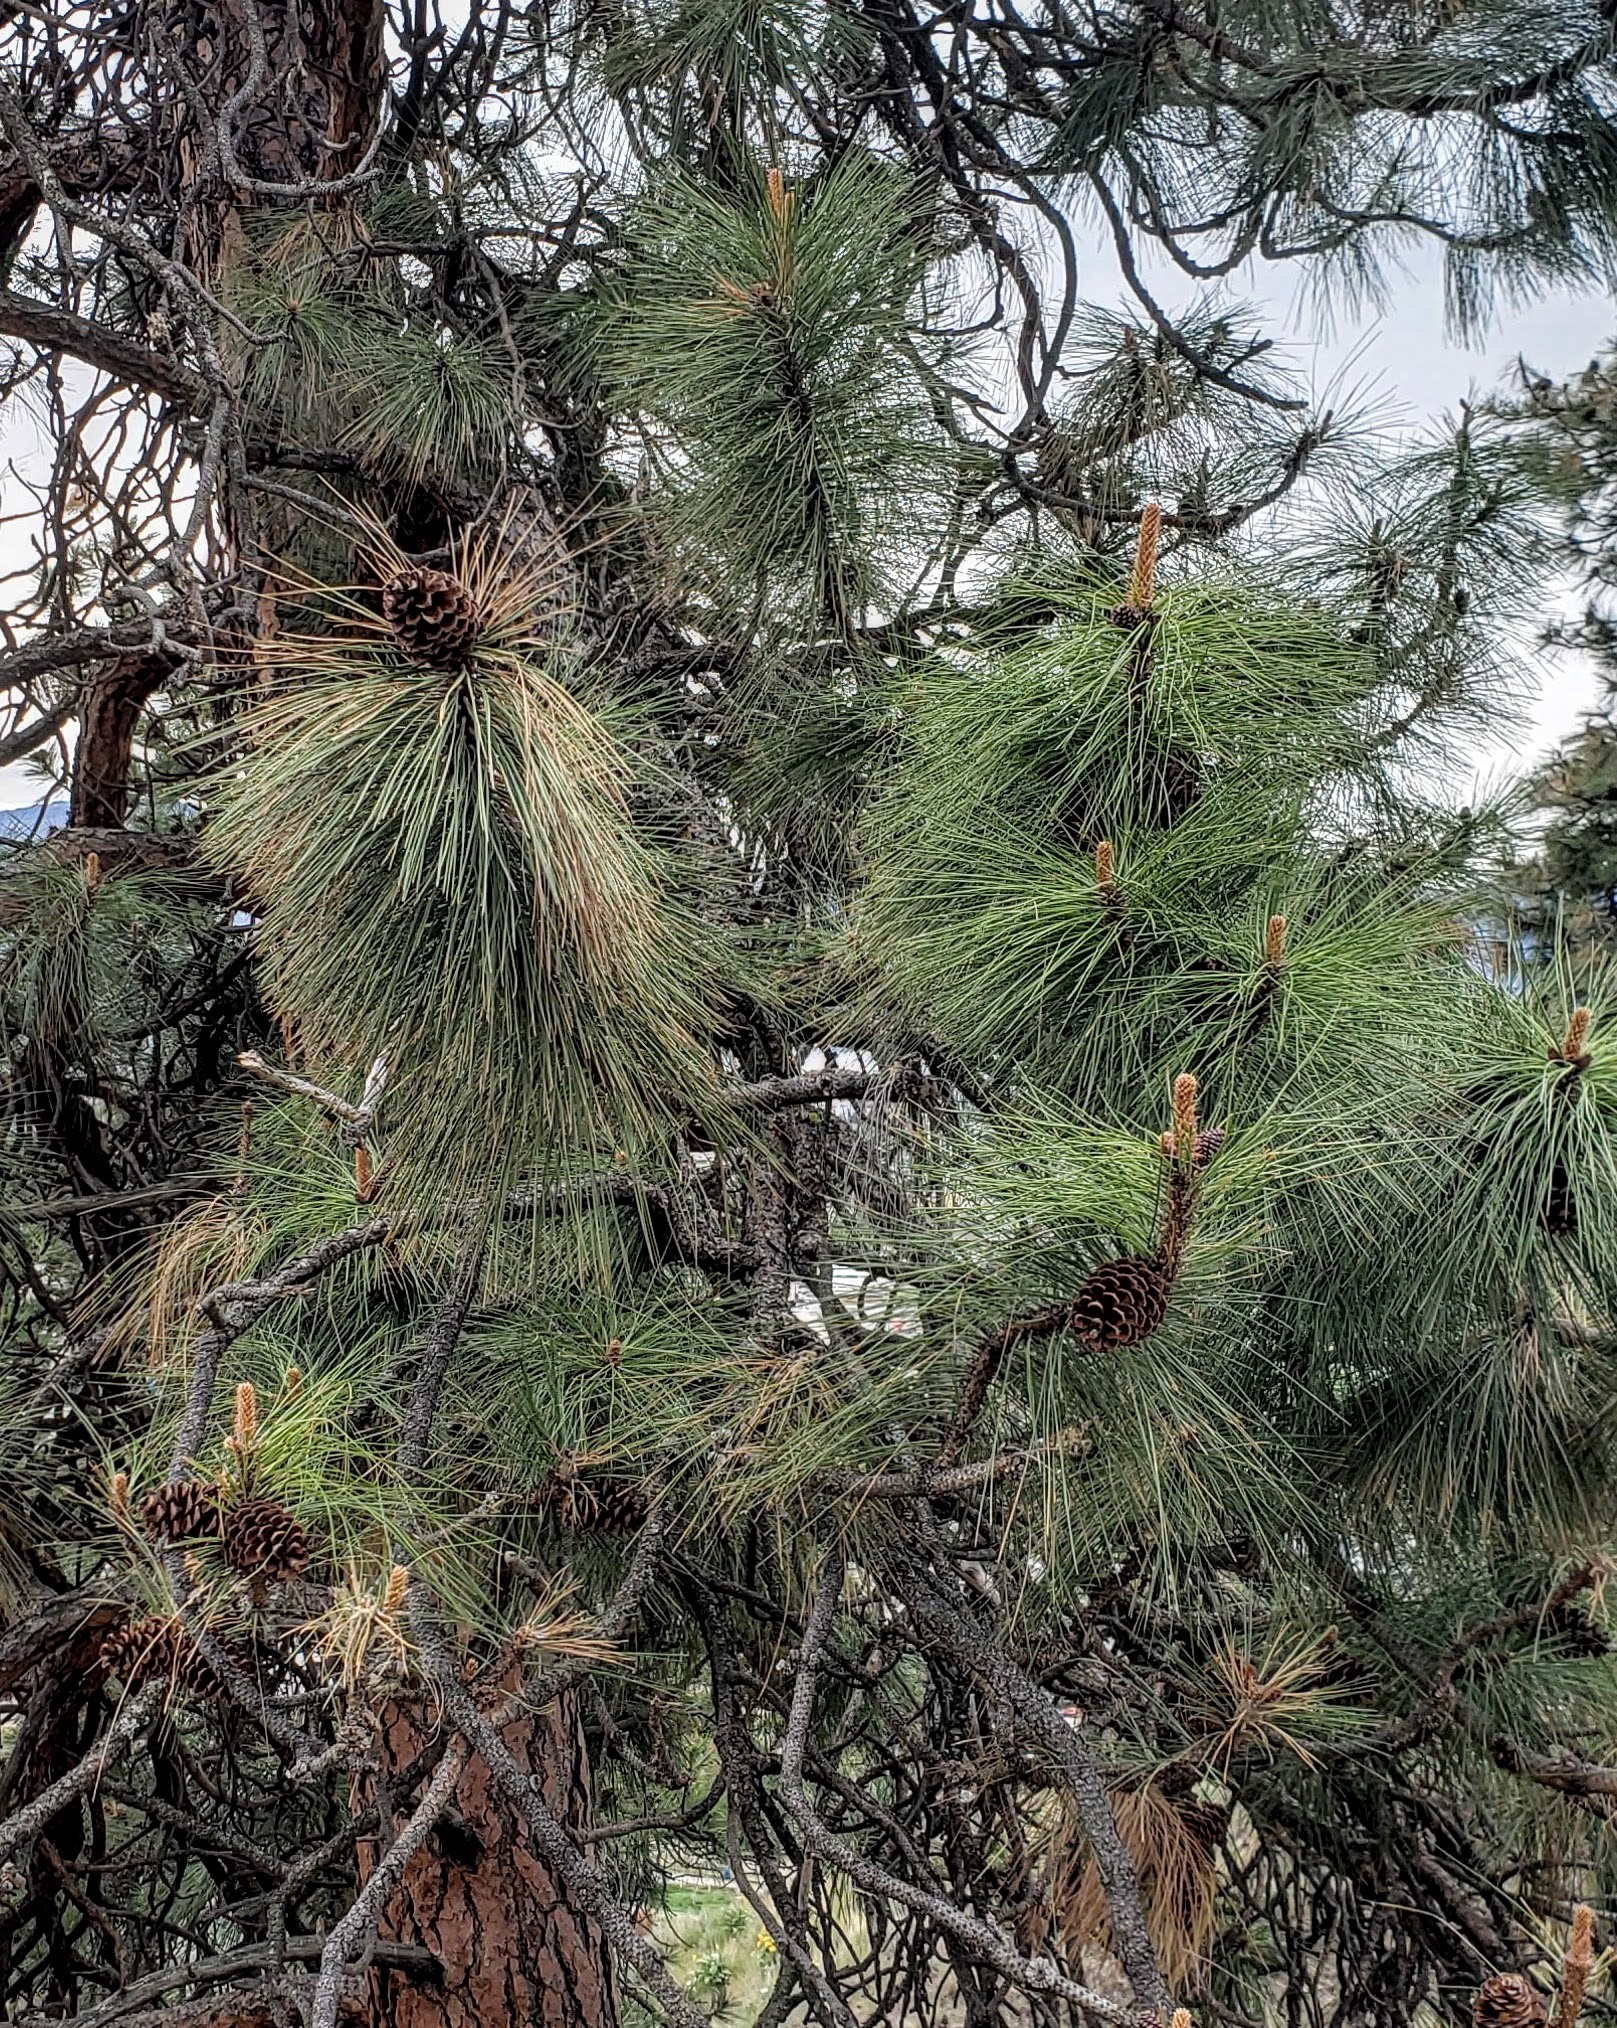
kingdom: Plantae
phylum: Tracheophyta
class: Pinopsida
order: Pinales
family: Pinaceae
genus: Pinus
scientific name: Pinus ponderosa
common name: Western yellow-pine
